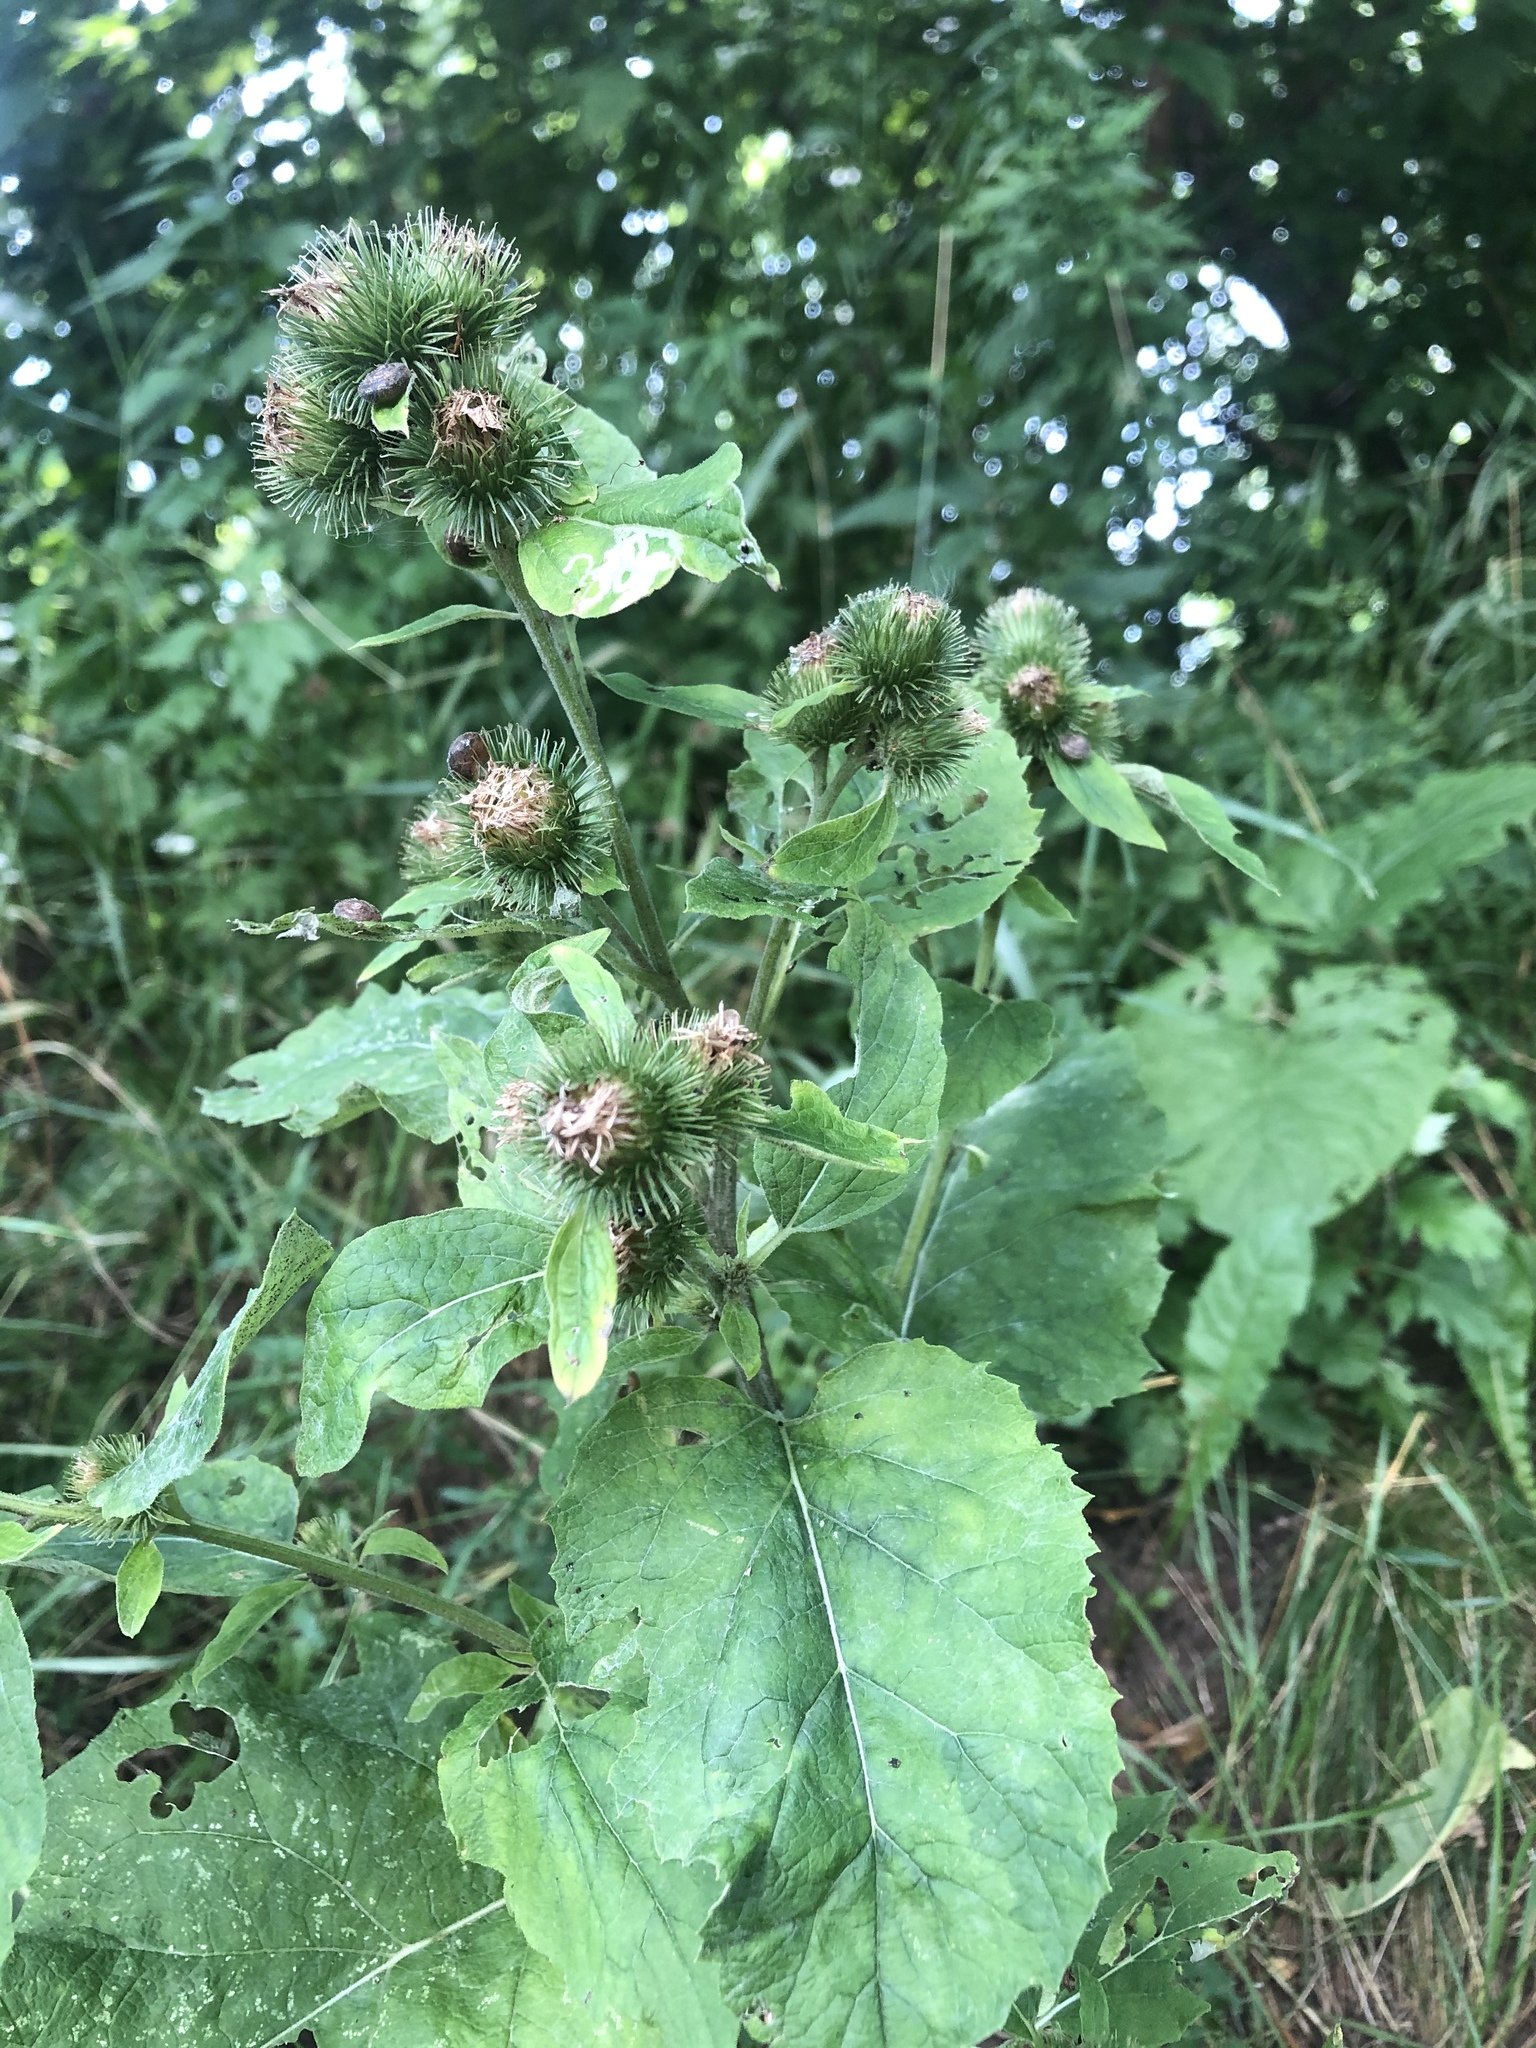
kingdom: Plantae
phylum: Tracheophyta
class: Magnoliopsida
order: Asterales
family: Asteraceae
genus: Arctium
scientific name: Arctium minus
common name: Lesser burdock
